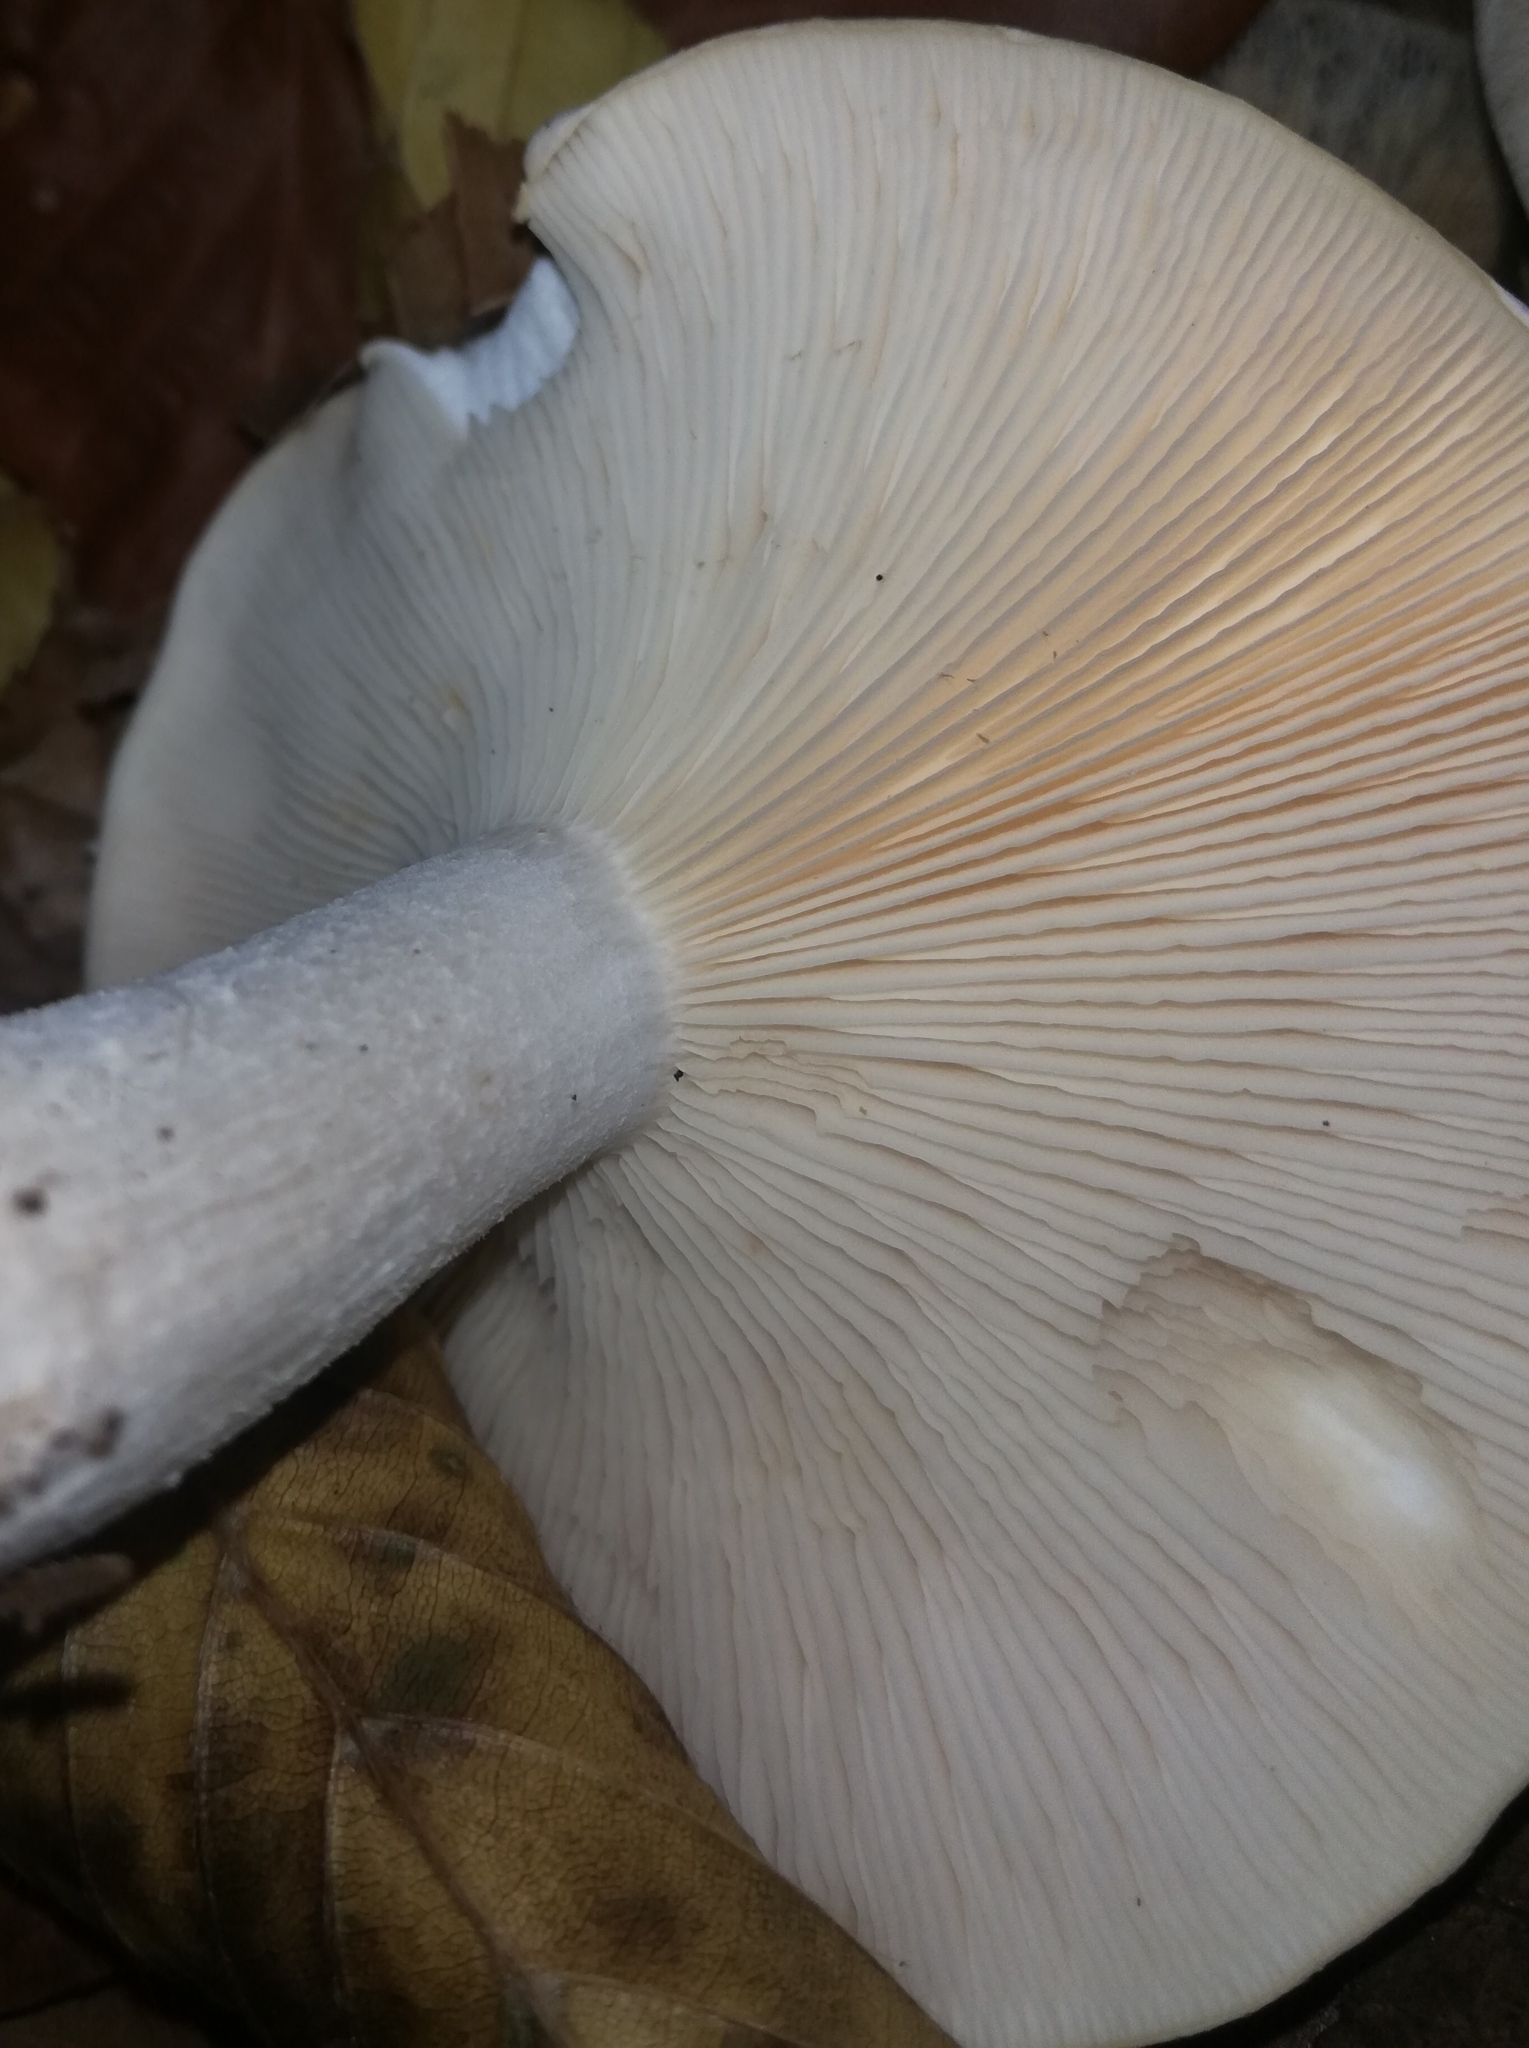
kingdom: Fungi
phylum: Basidiomycota
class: Agaricomycetes
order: Agaricales
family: Tricholomataceae
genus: Clitocybe
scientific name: Clitocybe nebularis
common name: Clouded agaric
